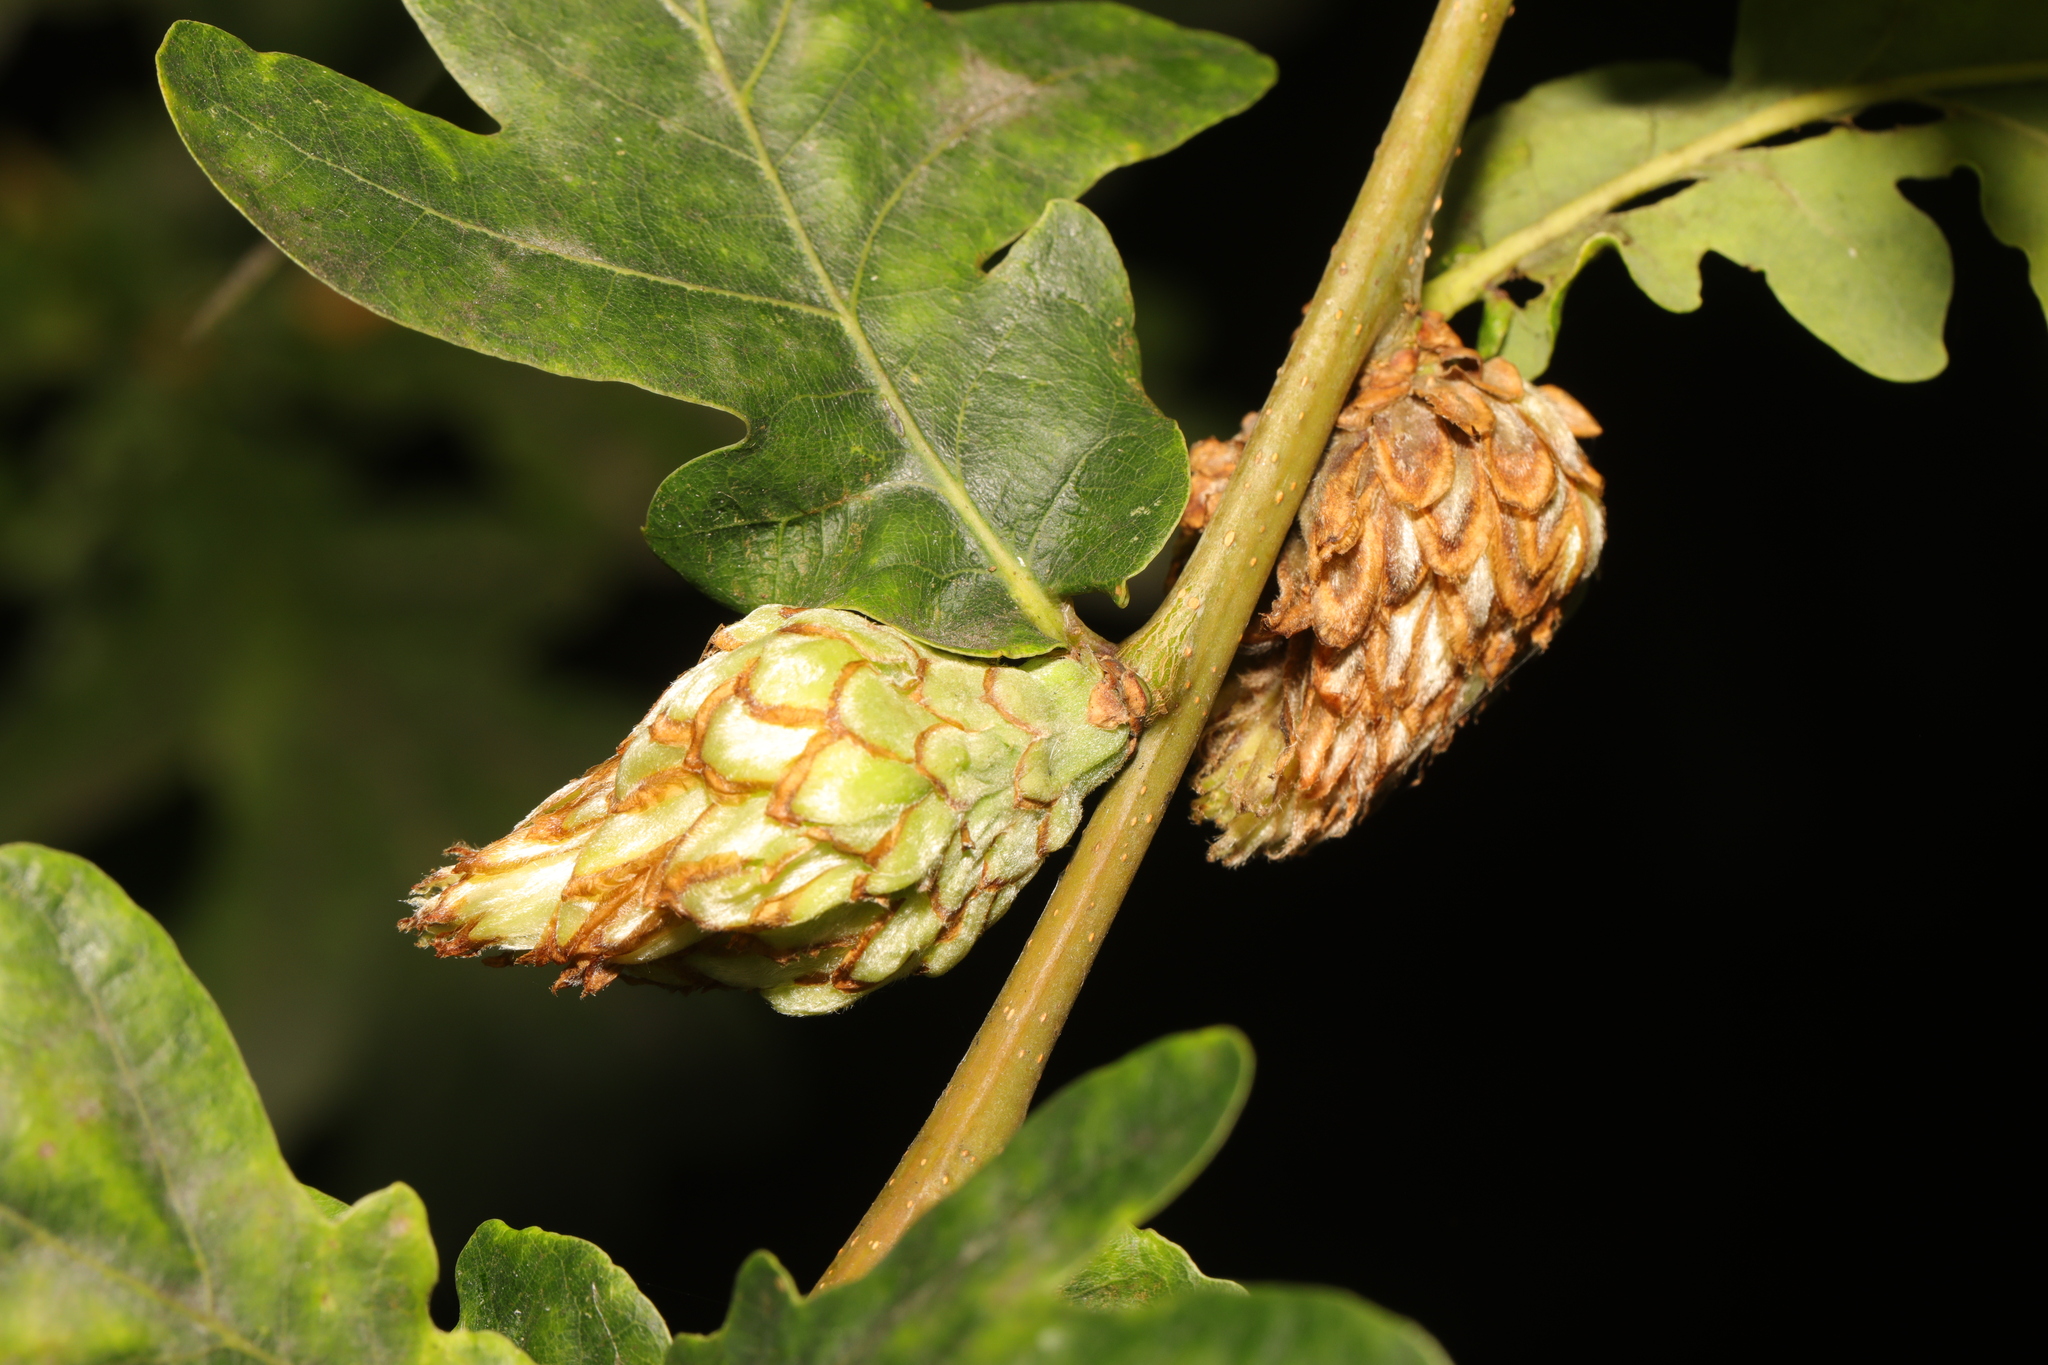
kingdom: Animalia
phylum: Arthropoda
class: Insecta
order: Hymenoptera
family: Cynipidae
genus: Andricus
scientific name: Andricus foecundatrix
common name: Artichoke gall
